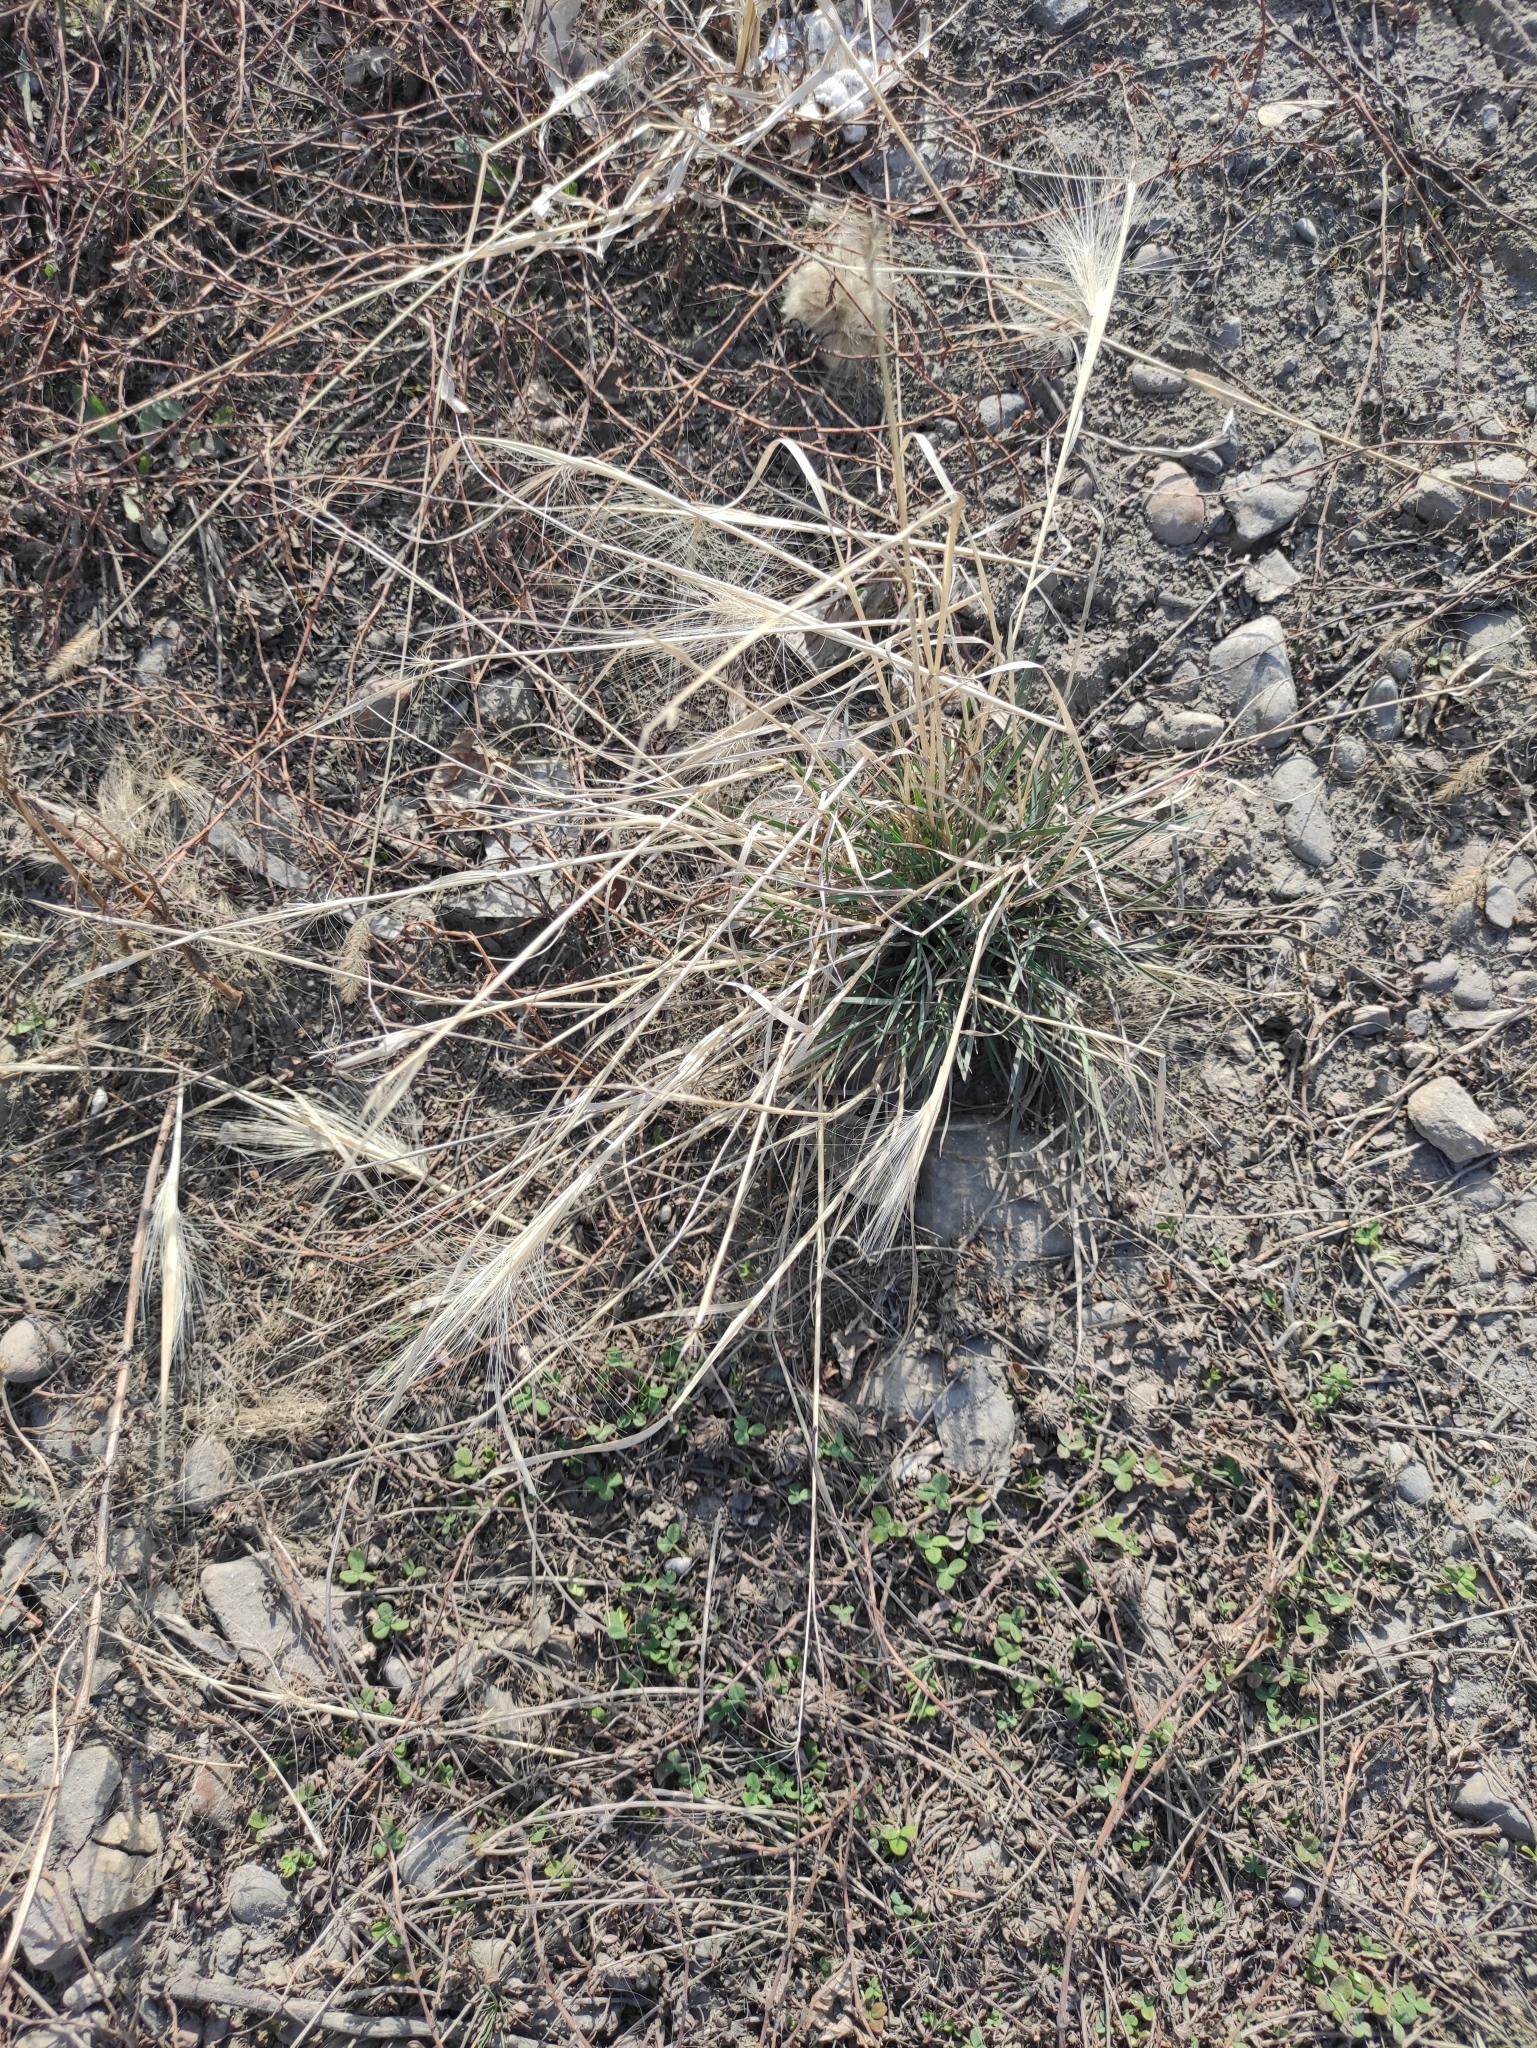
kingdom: Plantae
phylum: Tracheophyta
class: Liliopsida
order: Poales
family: Poaceae
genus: Hordeum
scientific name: Hordeum jubatum
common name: Foxtail barley
